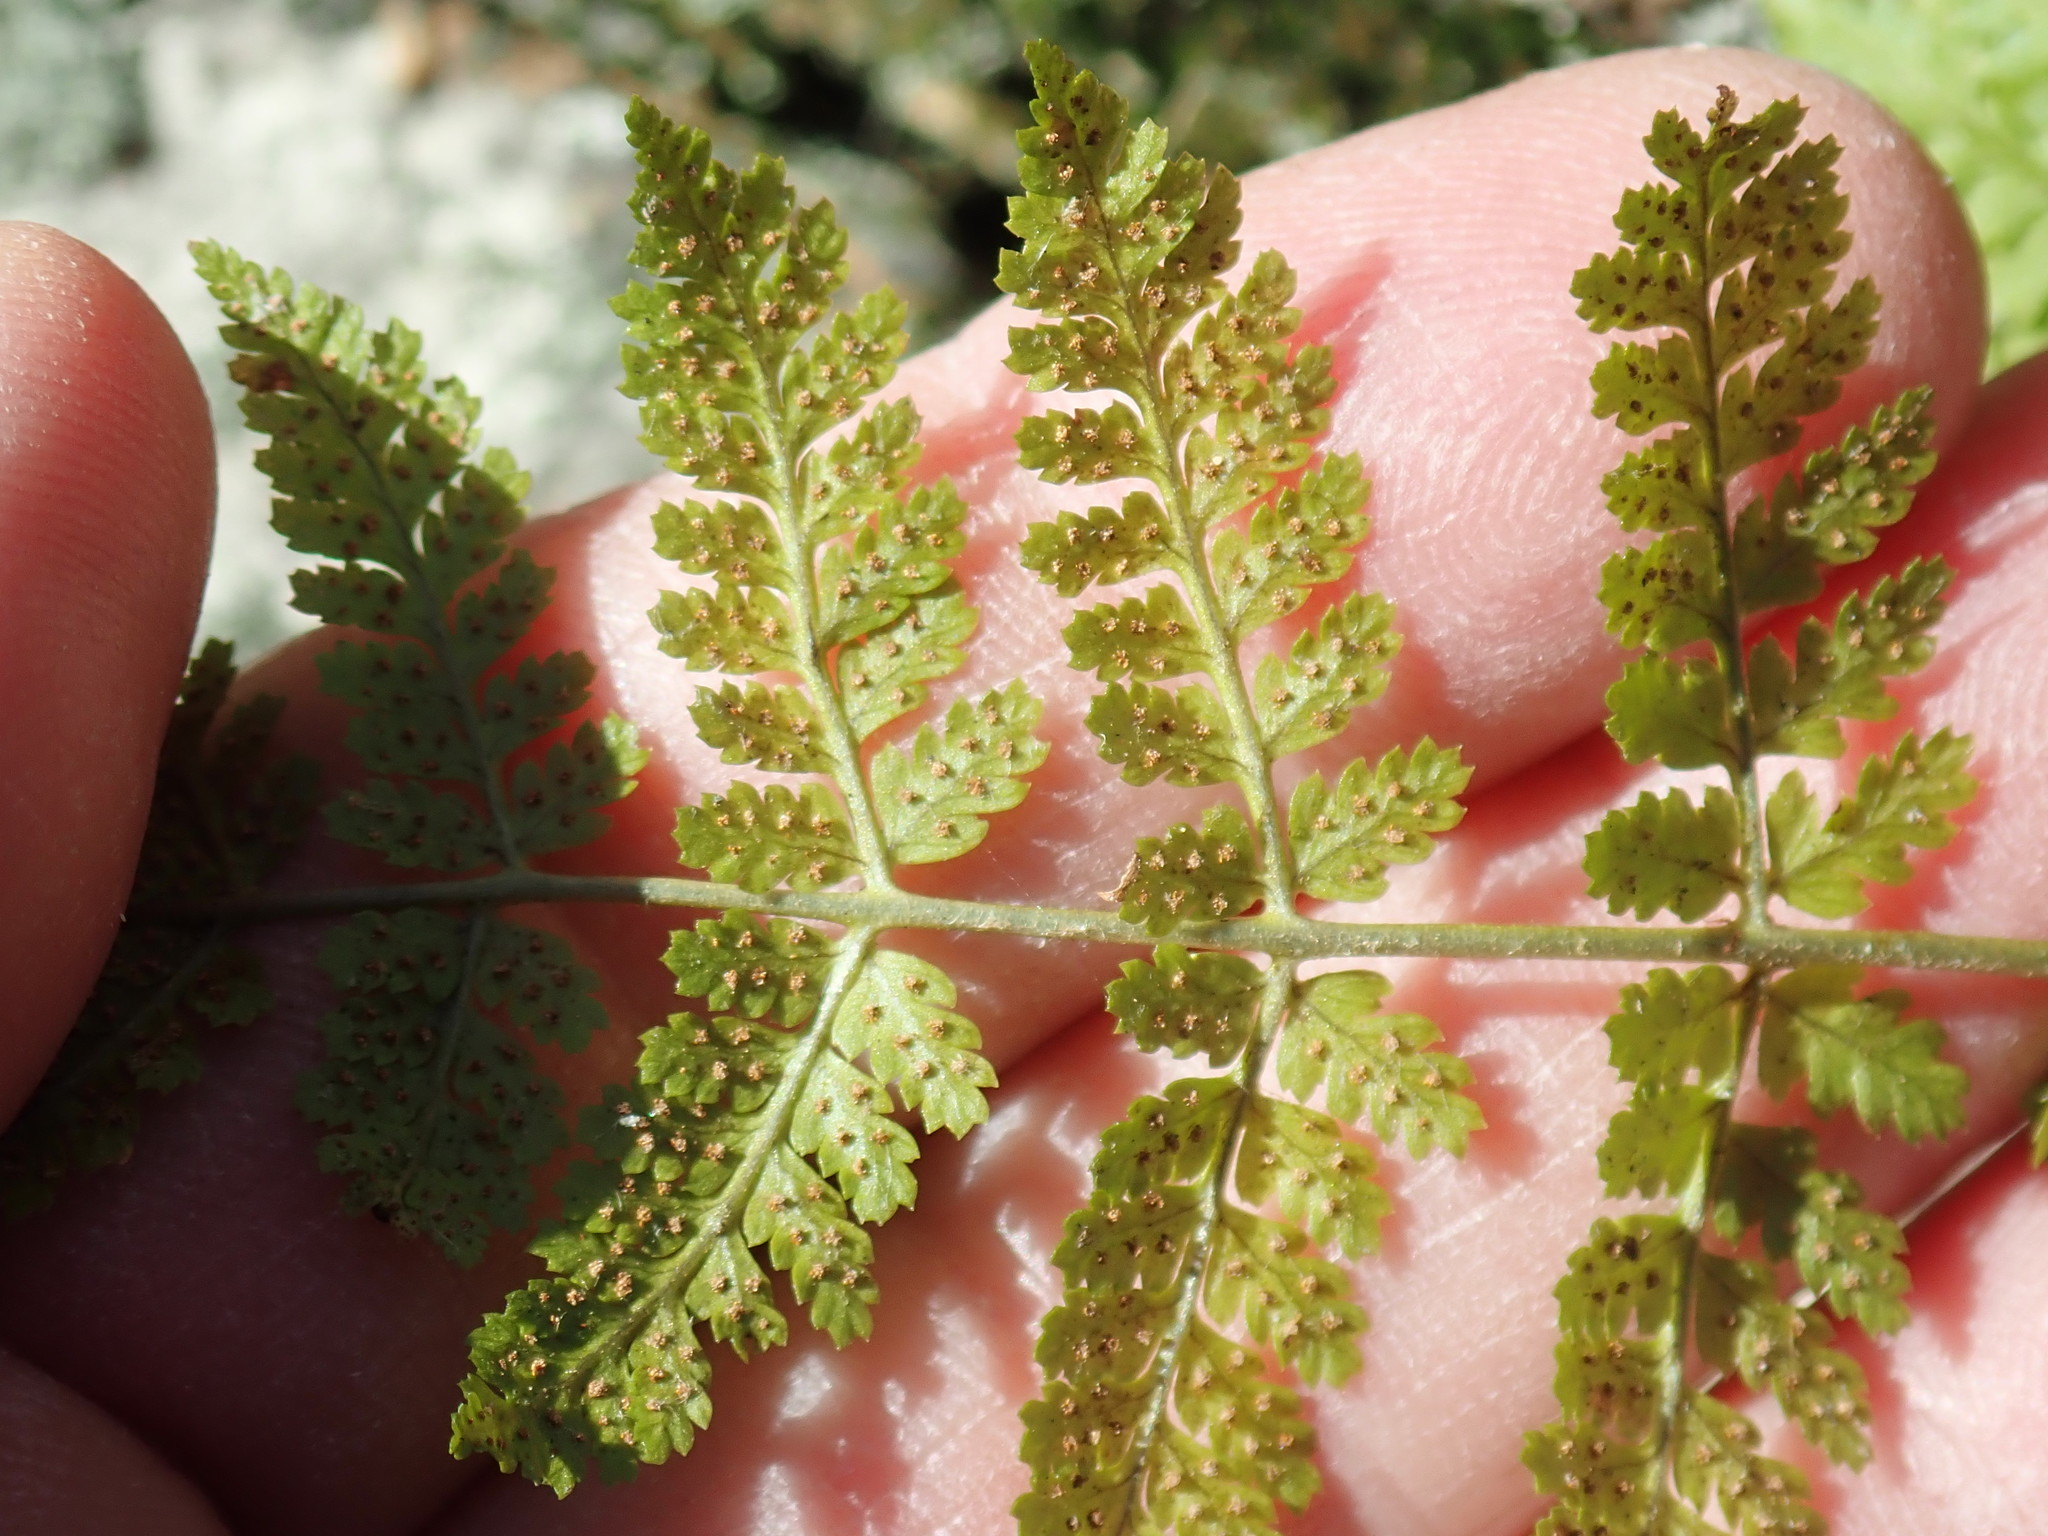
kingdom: Plantae
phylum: Tracheophyta
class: Polypodiopsida
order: Polypodiales
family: Dryopteridaceae
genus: Dryopteris
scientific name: Dryopteris
